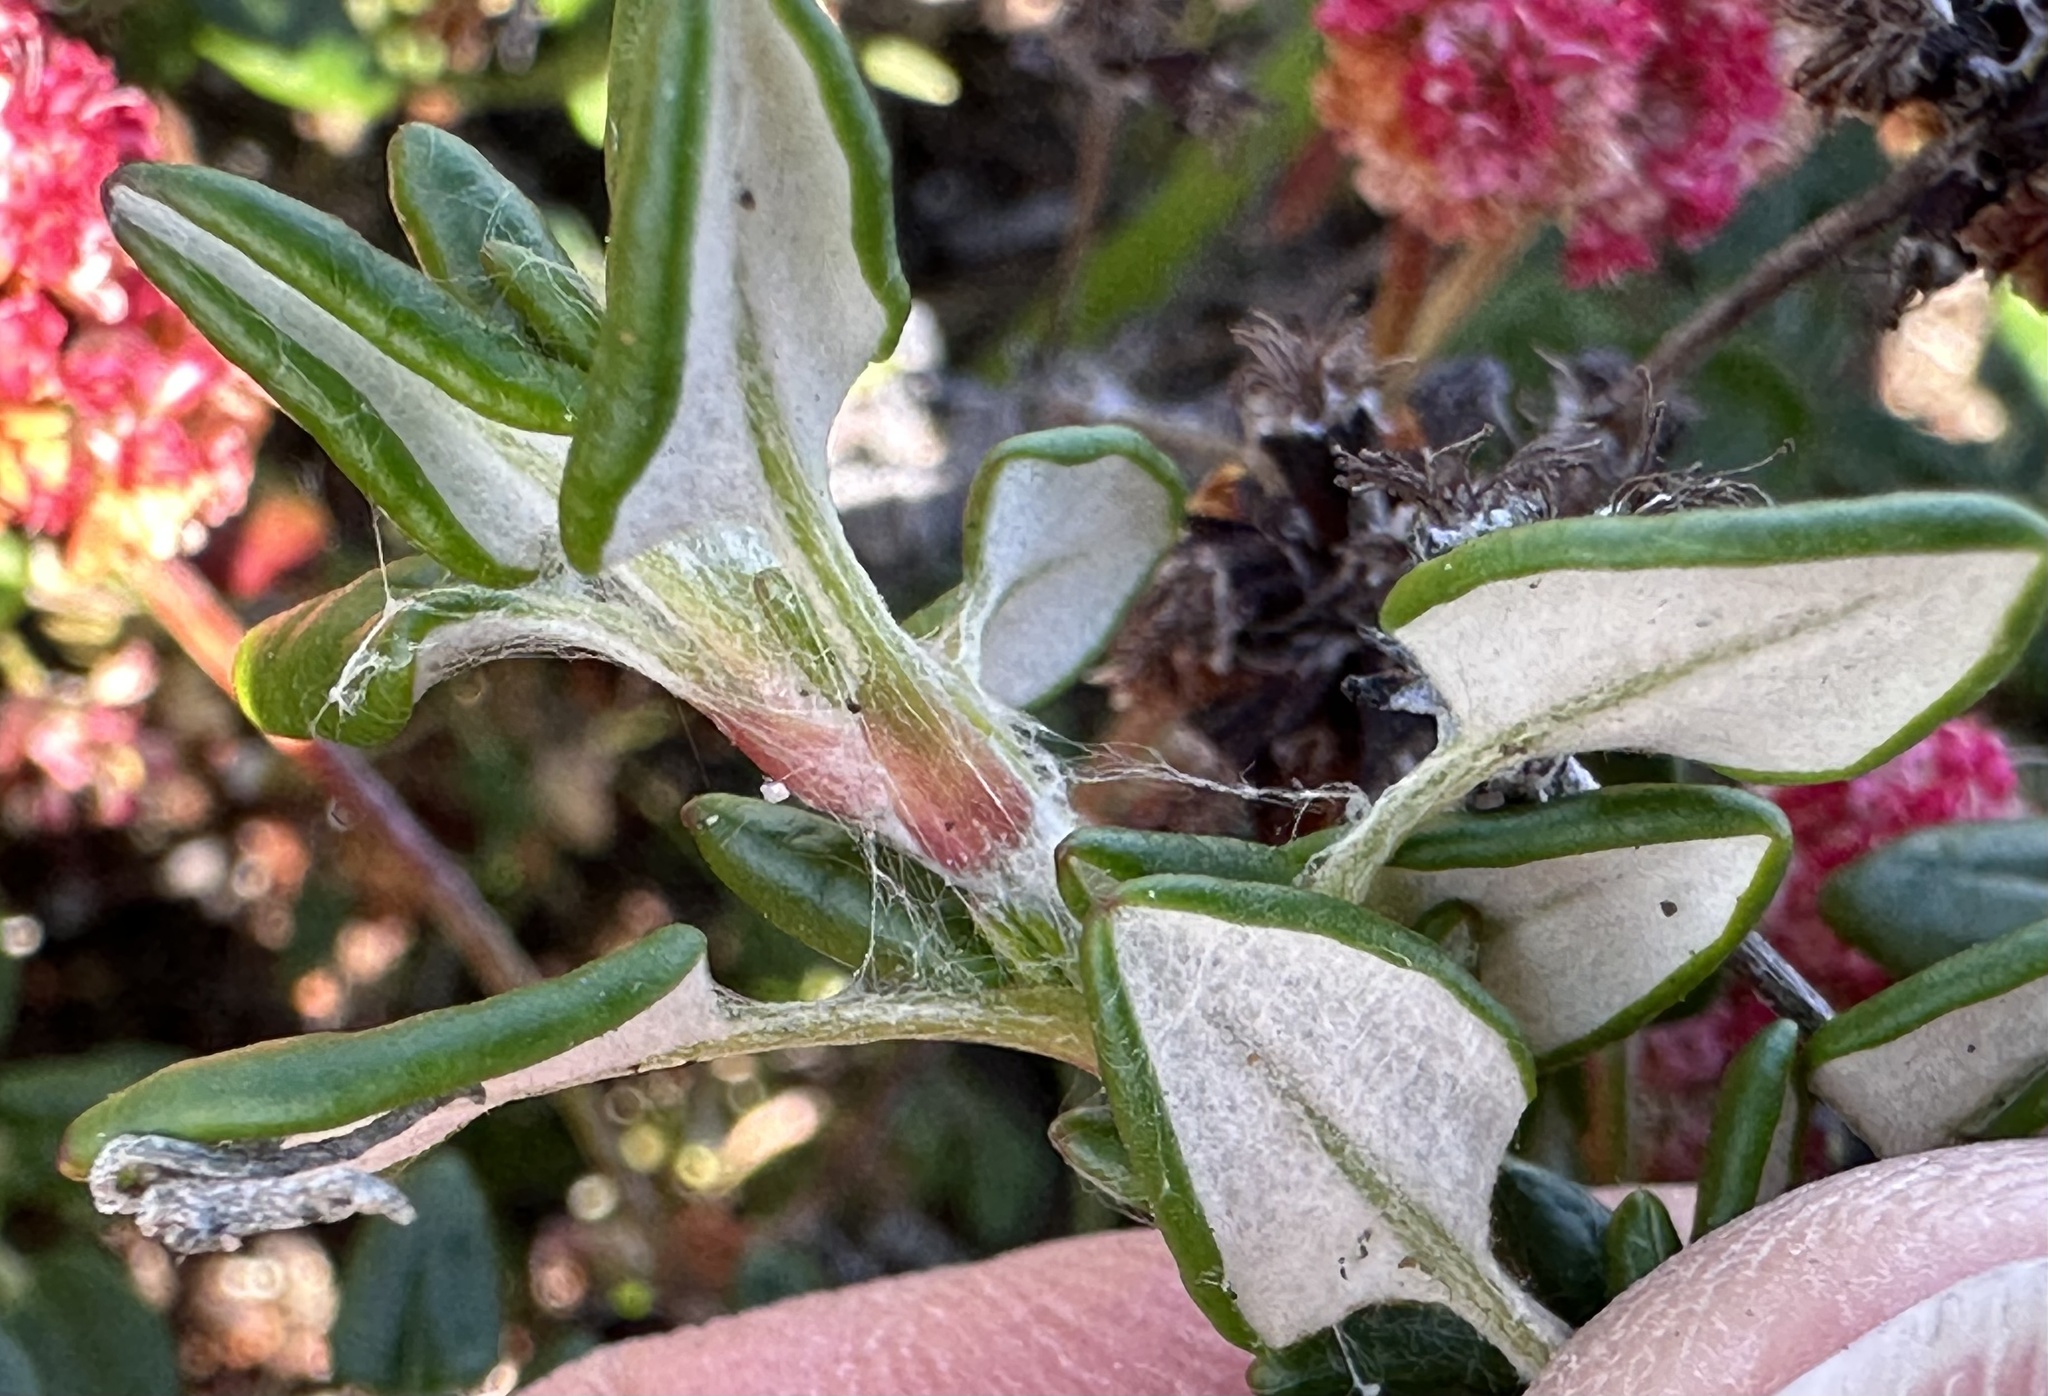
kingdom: Plantae
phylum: Tracheophyta
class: Magnoliopsida
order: Caryophyllales
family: Polygonaceae
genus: Eriogonum
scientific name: Eriogonum parvifolium
